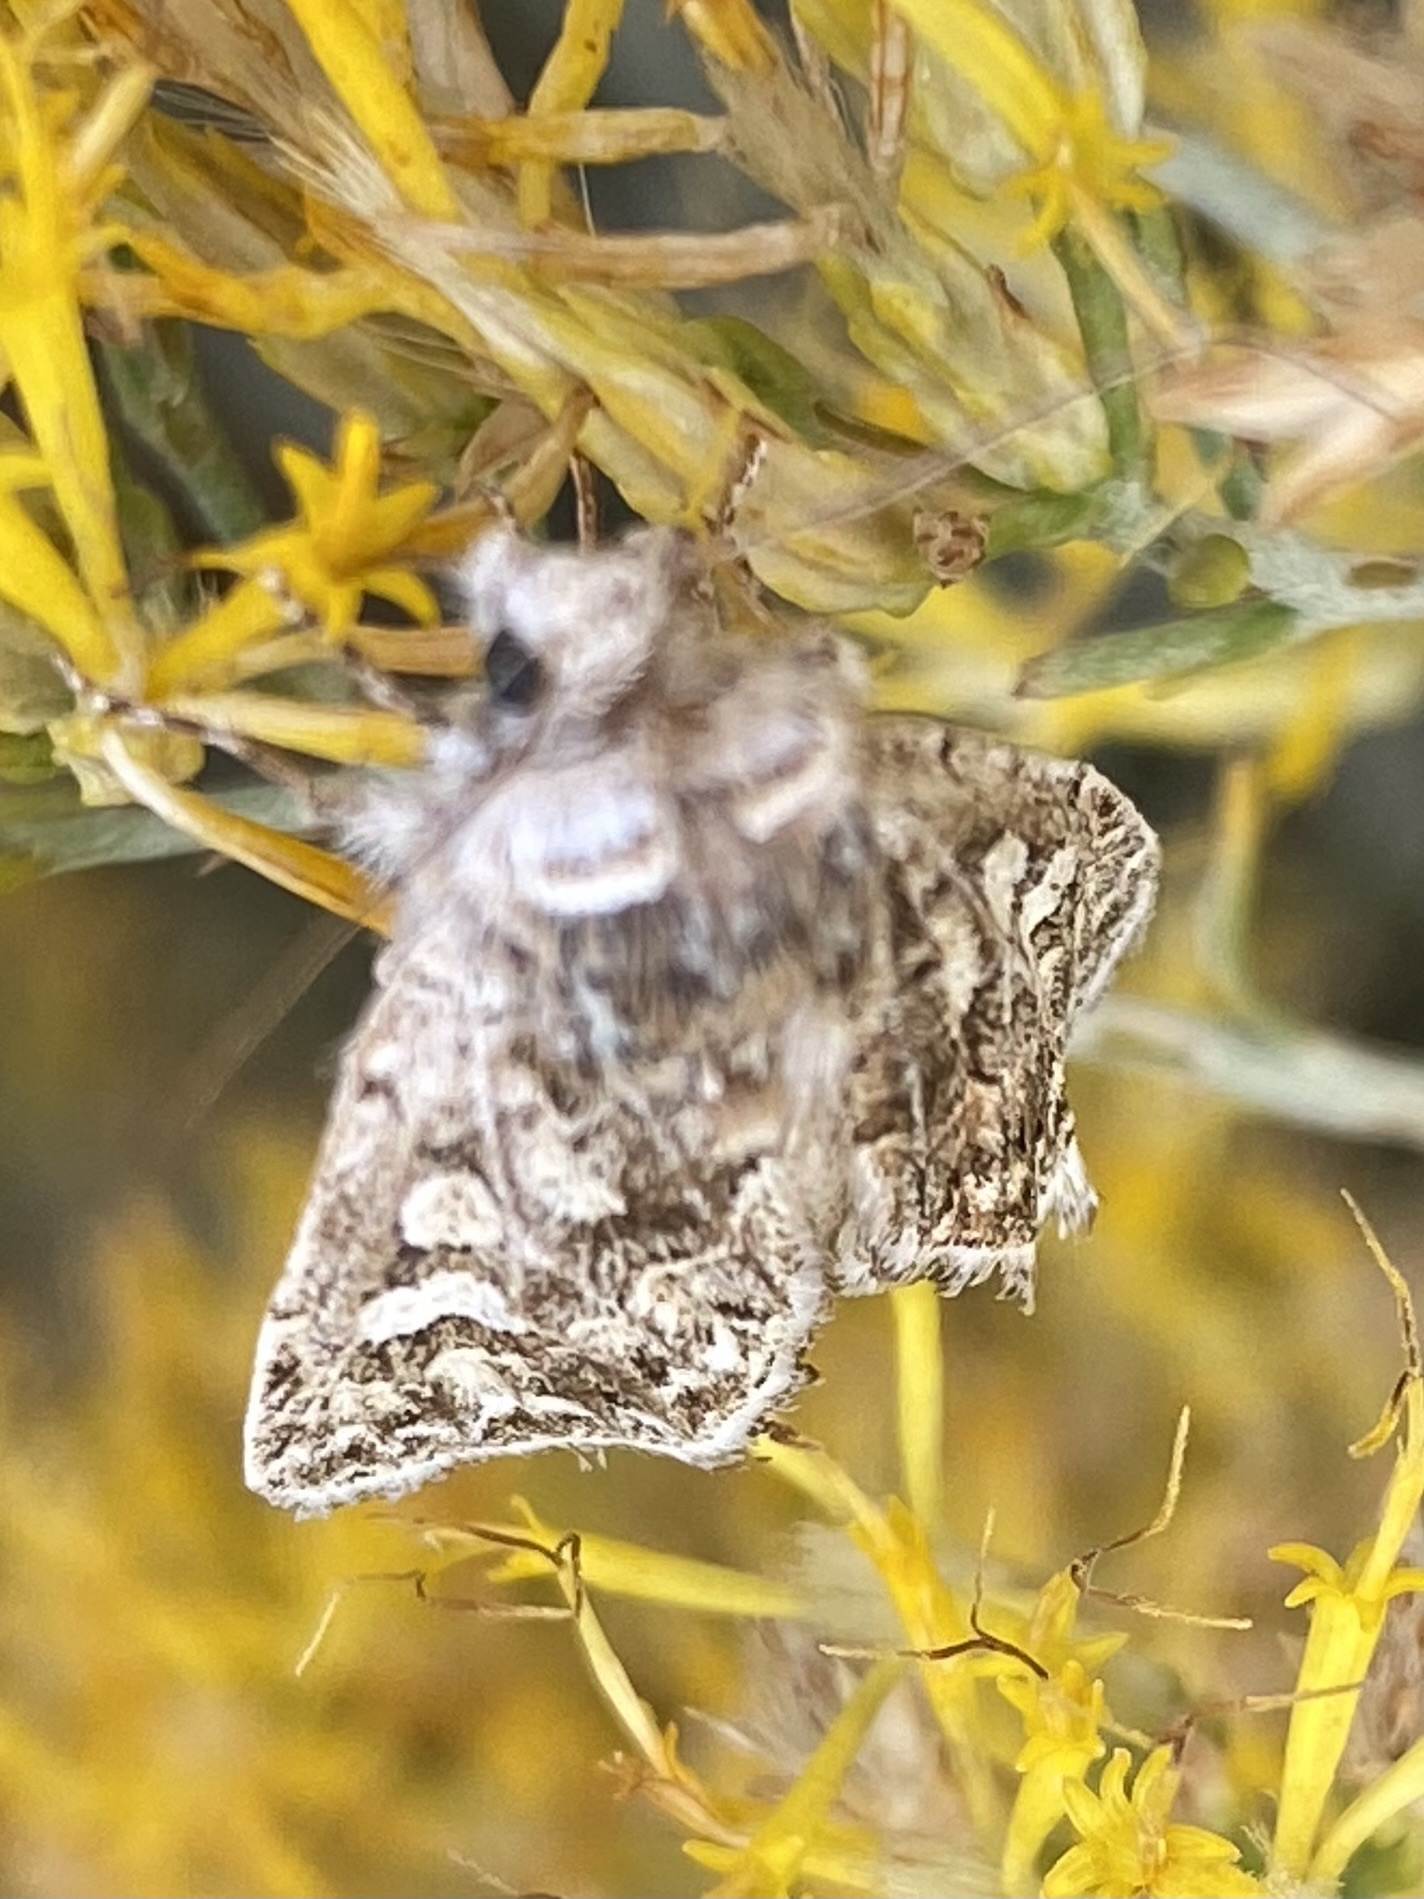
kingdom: Animalia
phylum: Arthropoda
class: Insecta
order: Lepidoptera
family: Noctuidae
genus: Sympistis
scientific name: Sympistis augustus
